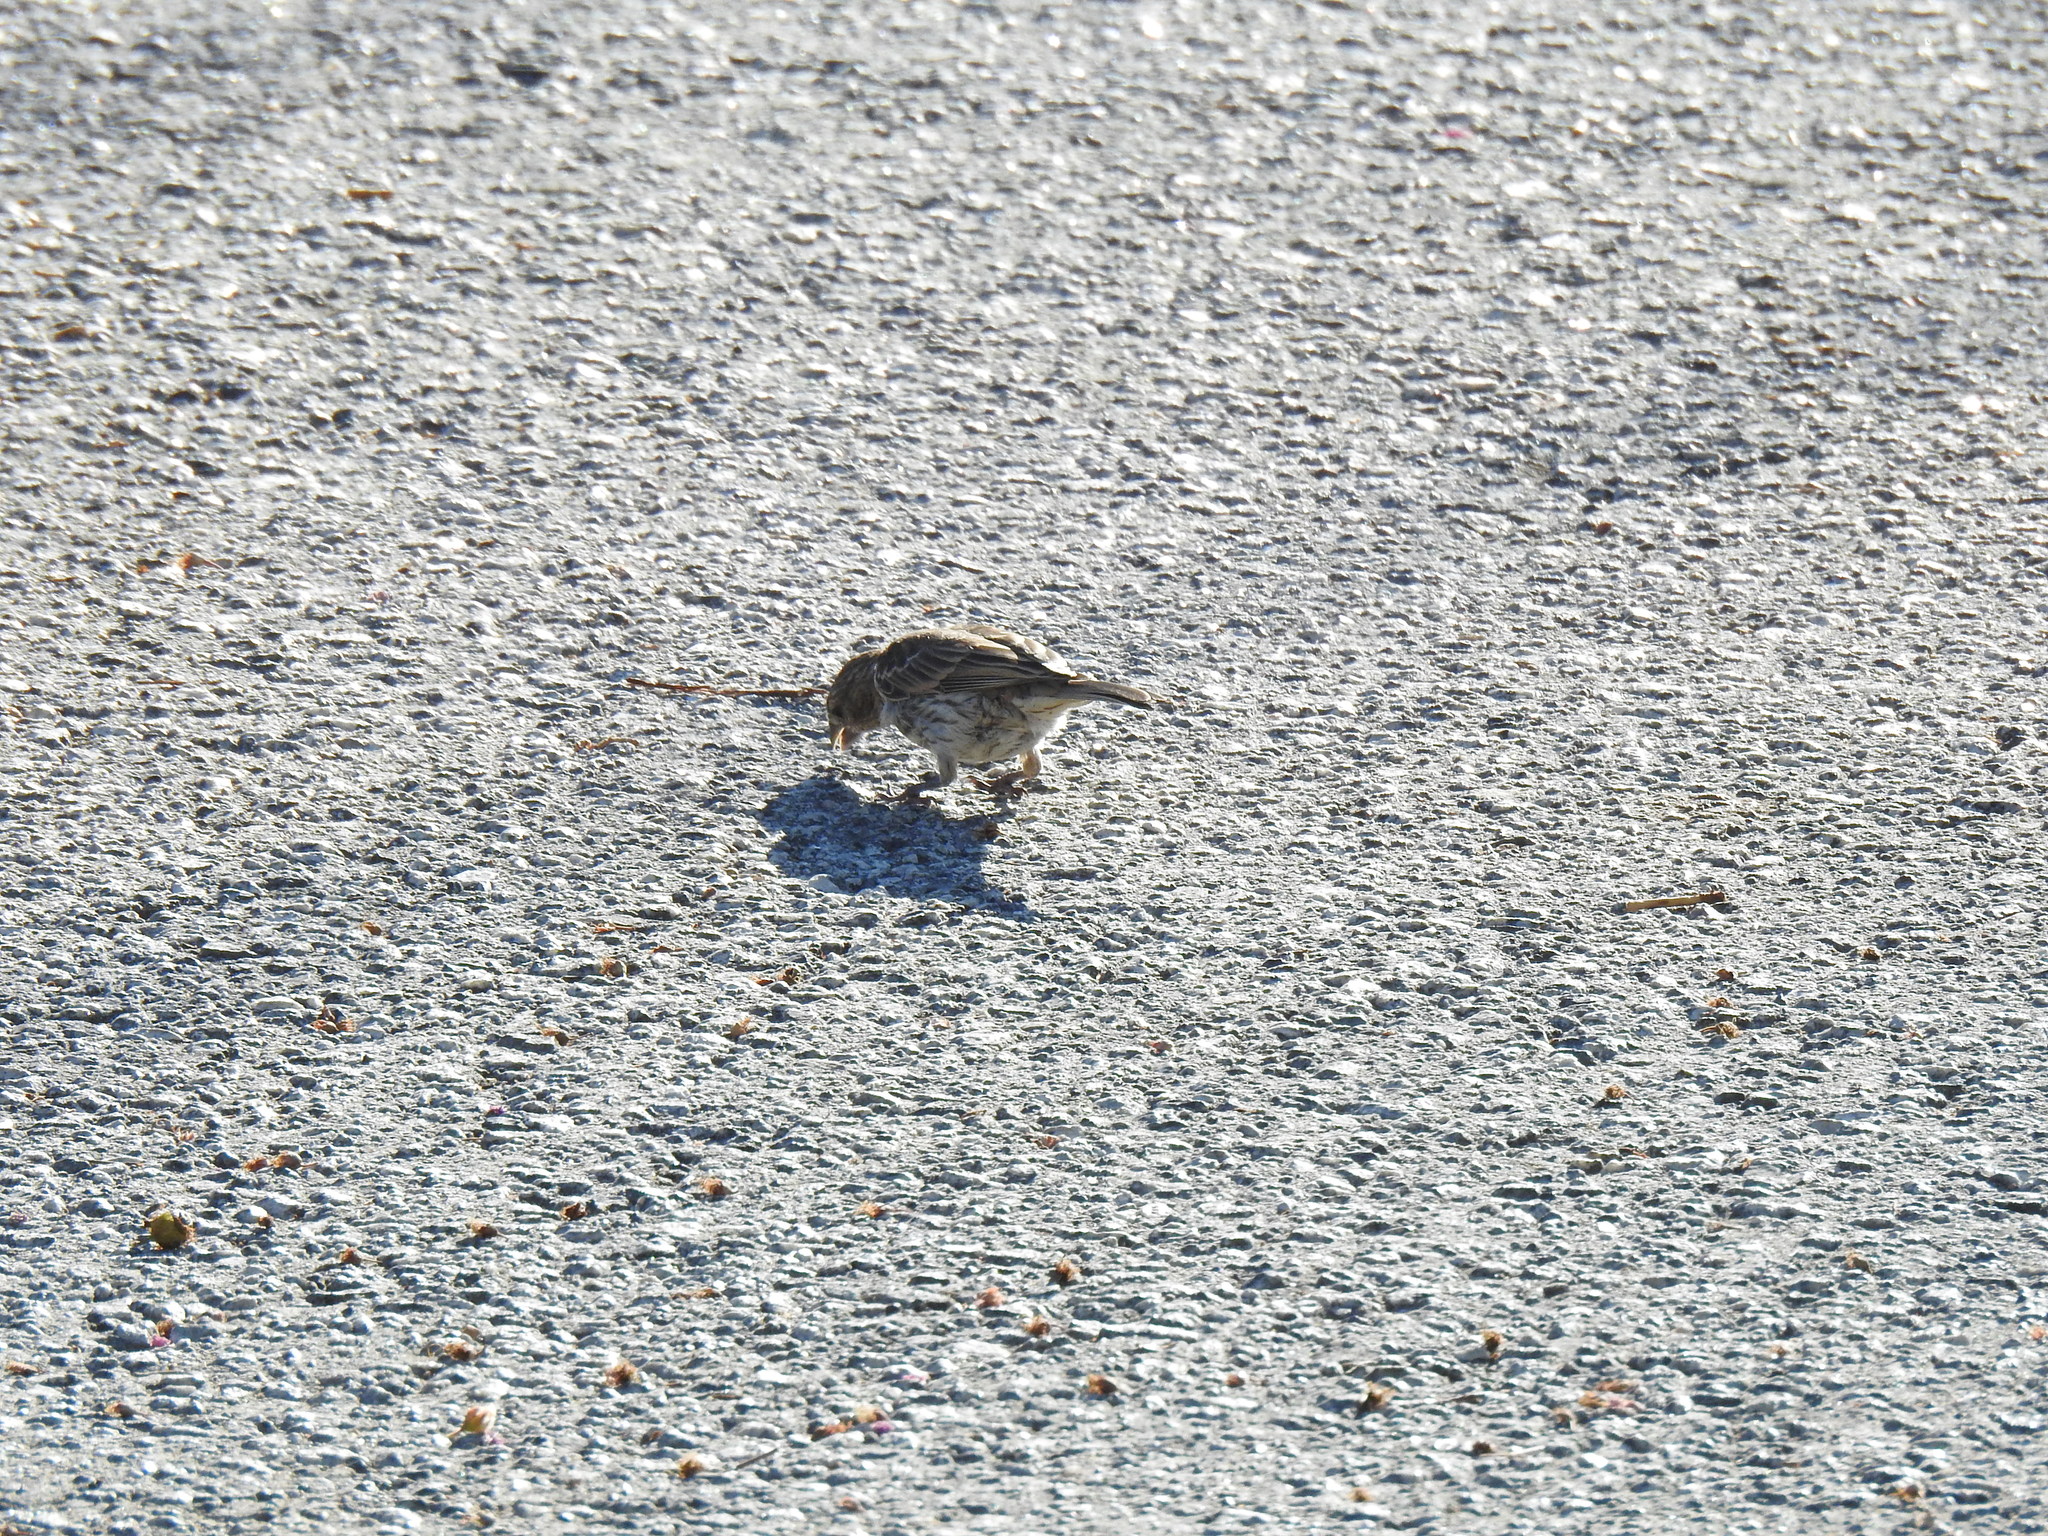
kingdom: Animalia
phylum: Chordata
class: Aves
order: Passeriformes
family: Fringillidae
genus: Haemorhous
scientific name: Haemorhous mexicanus
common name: House finch
